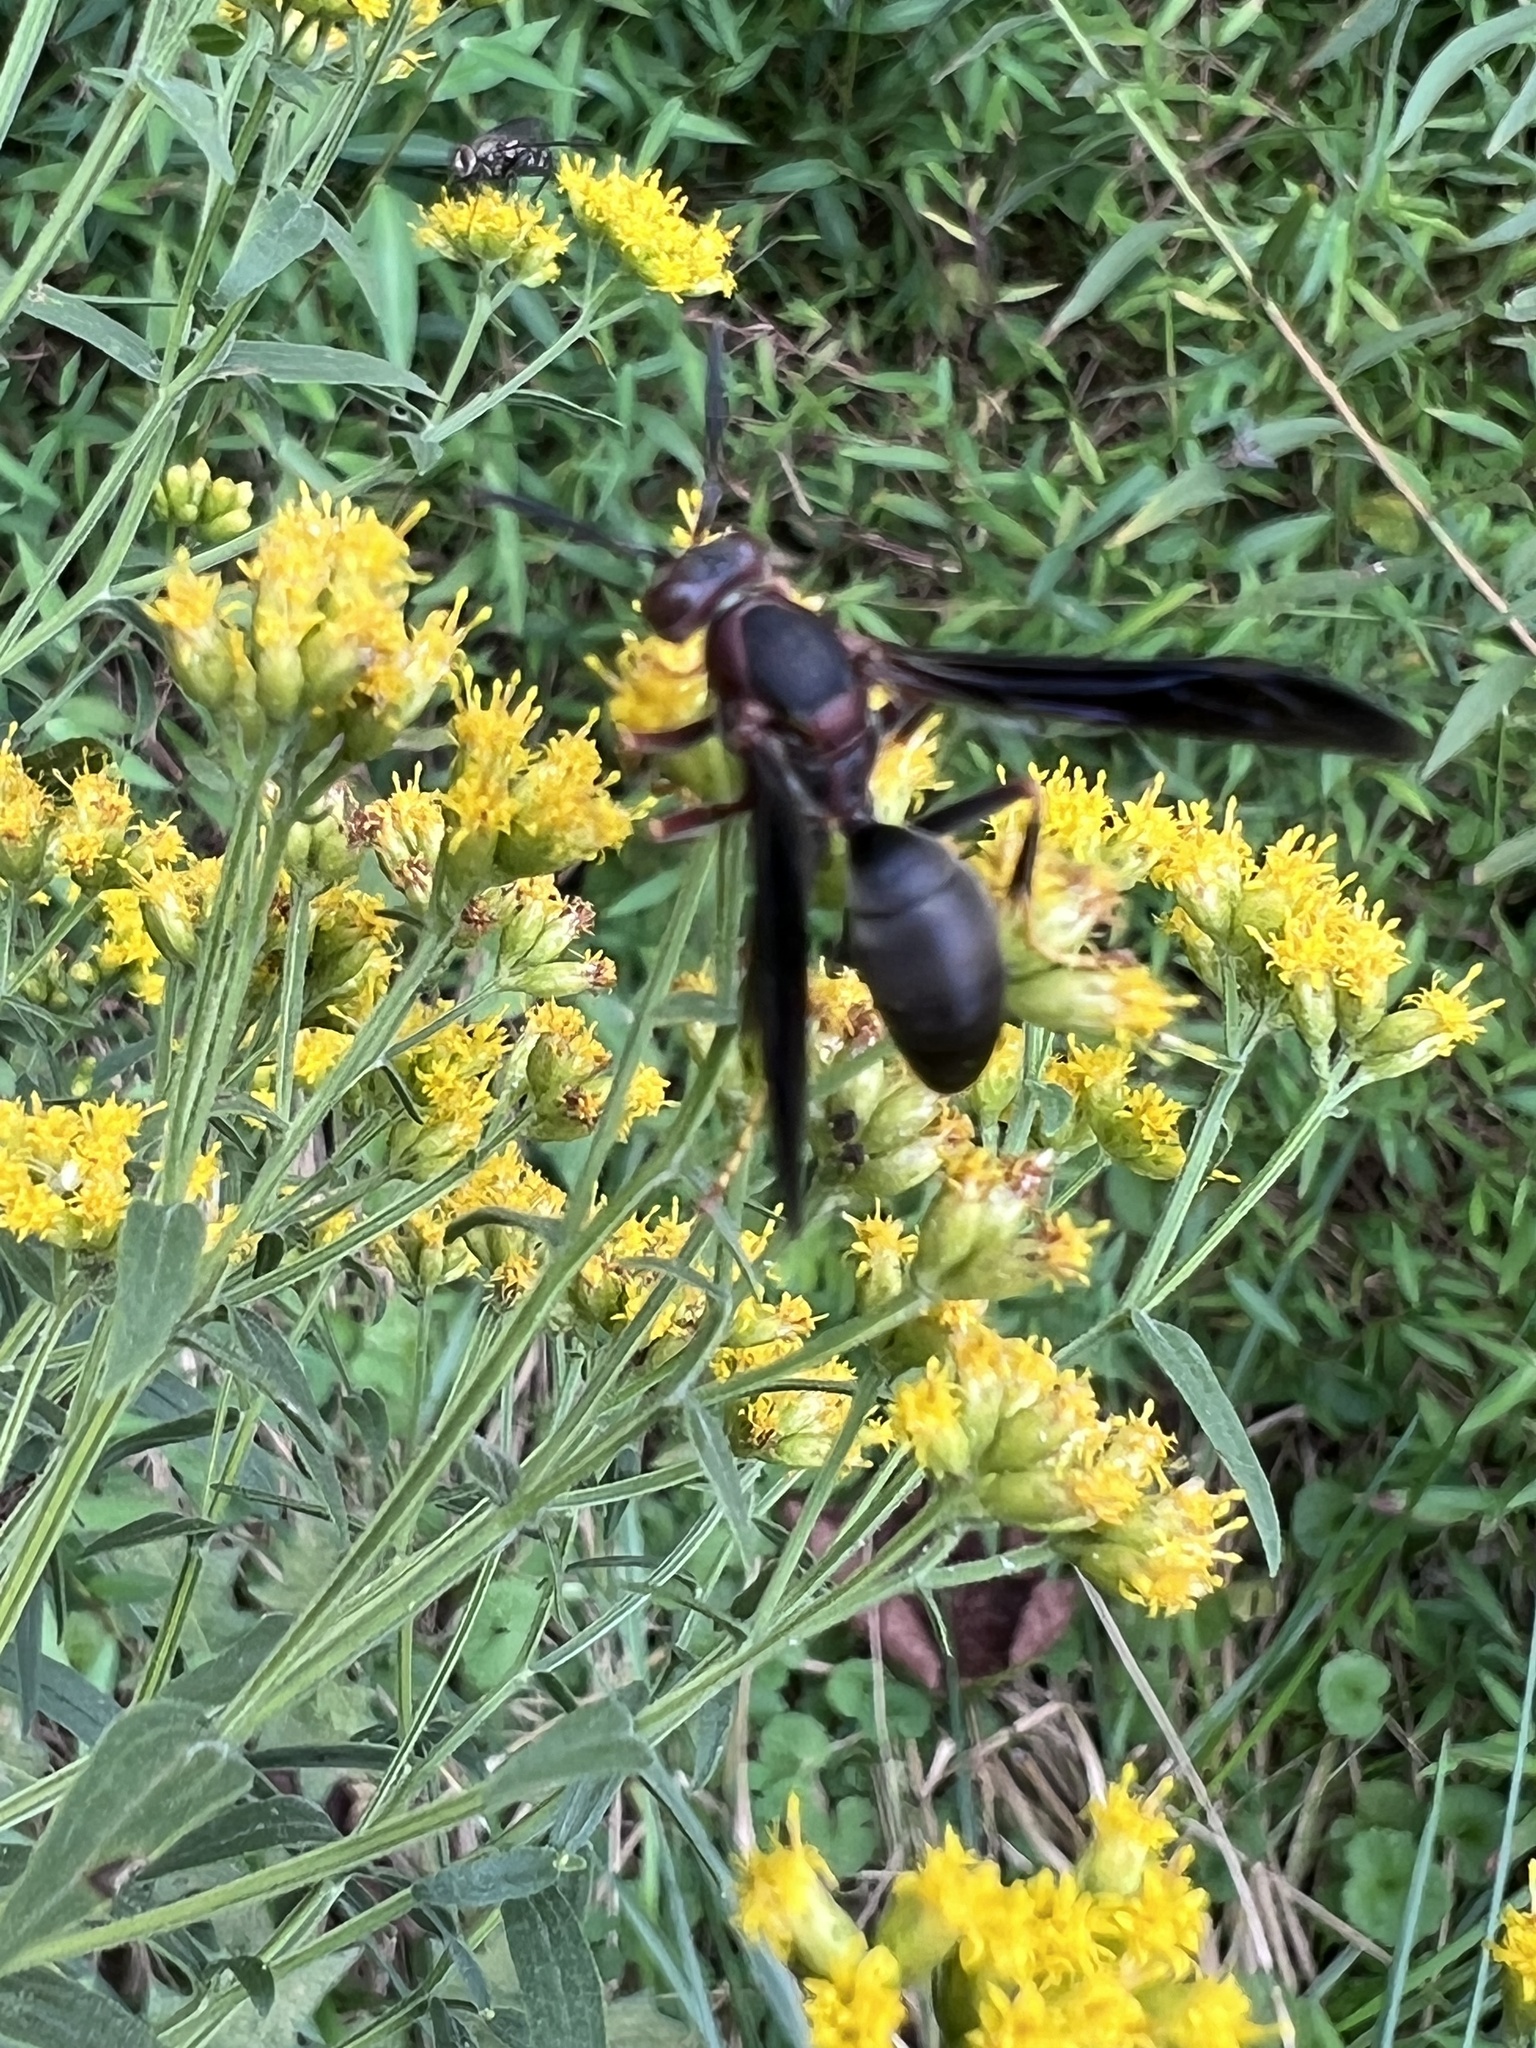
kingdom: Animalia
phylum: Arthropoda
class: Insecta
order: Hymenoptera
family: Eumenidae
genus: Polistes
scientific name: Polistes metricus
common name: Metric paper wasp
